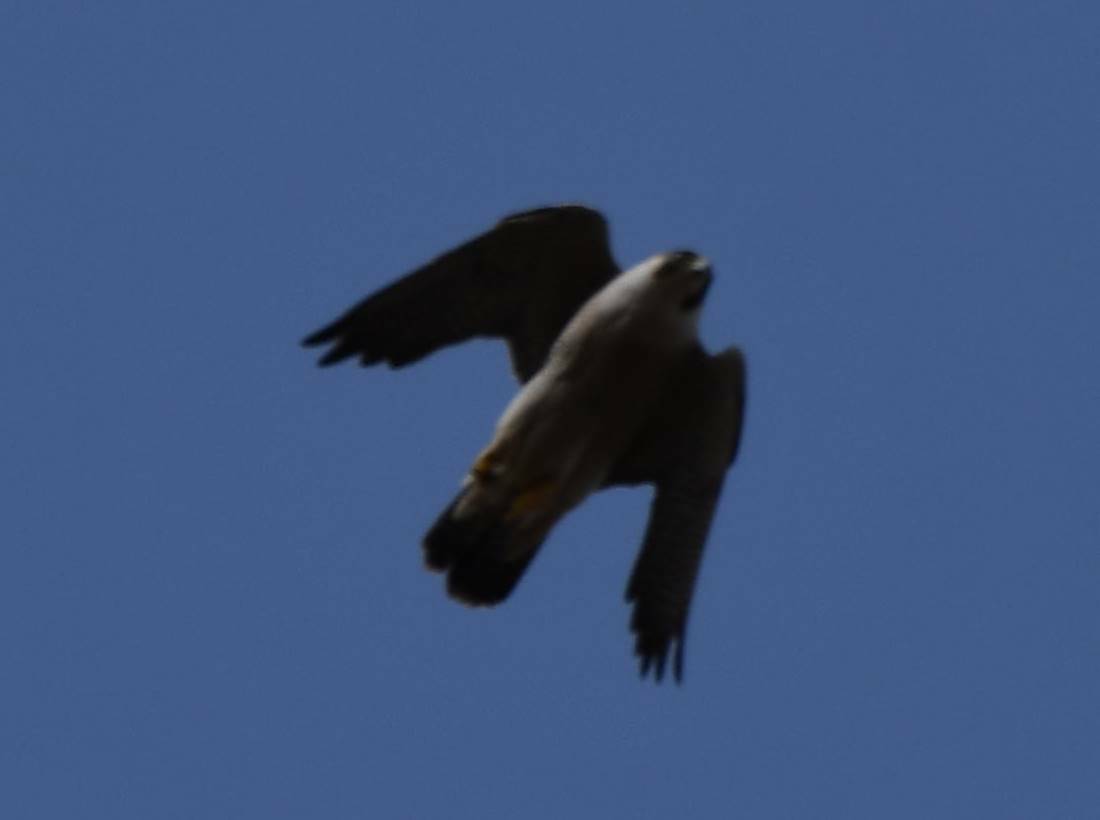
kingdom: Animalia
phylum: Chordata
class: Aves
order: Falconiformes
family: Falconidae
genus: Falco
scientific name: Falco peregrinus
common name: Peregrine falcon
